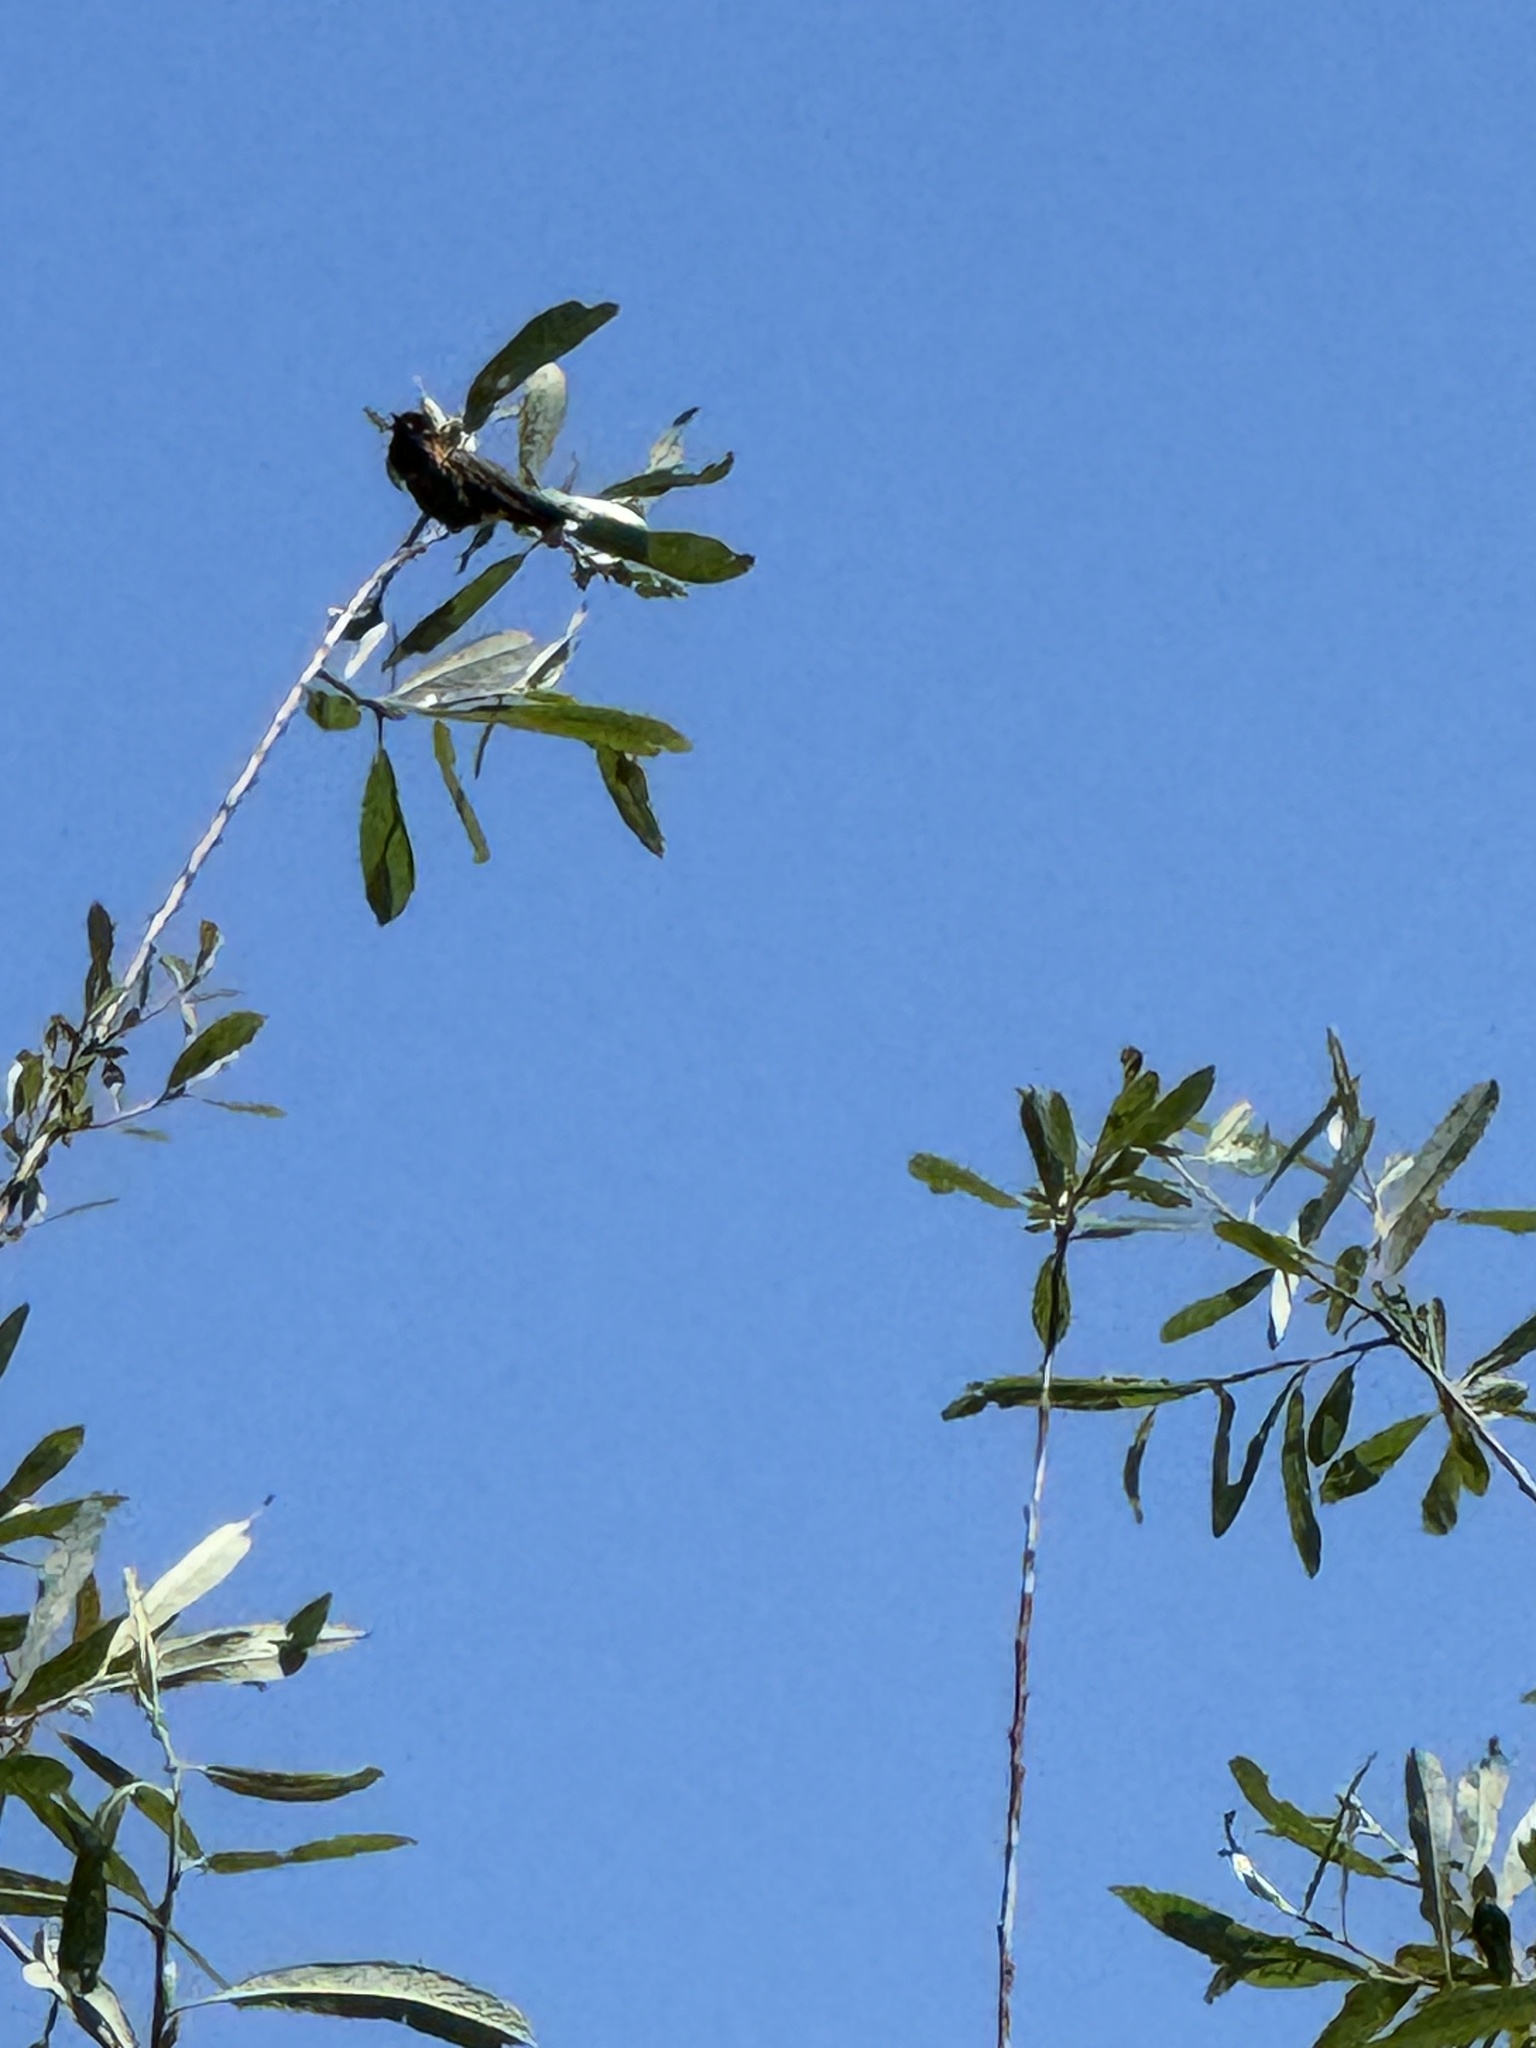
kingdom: Animalia
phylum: Chordata
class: Aves
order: Apodiformes
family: Trochilidae
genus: Calypte
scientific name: Calypte anna
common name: Anna's hummingbird
